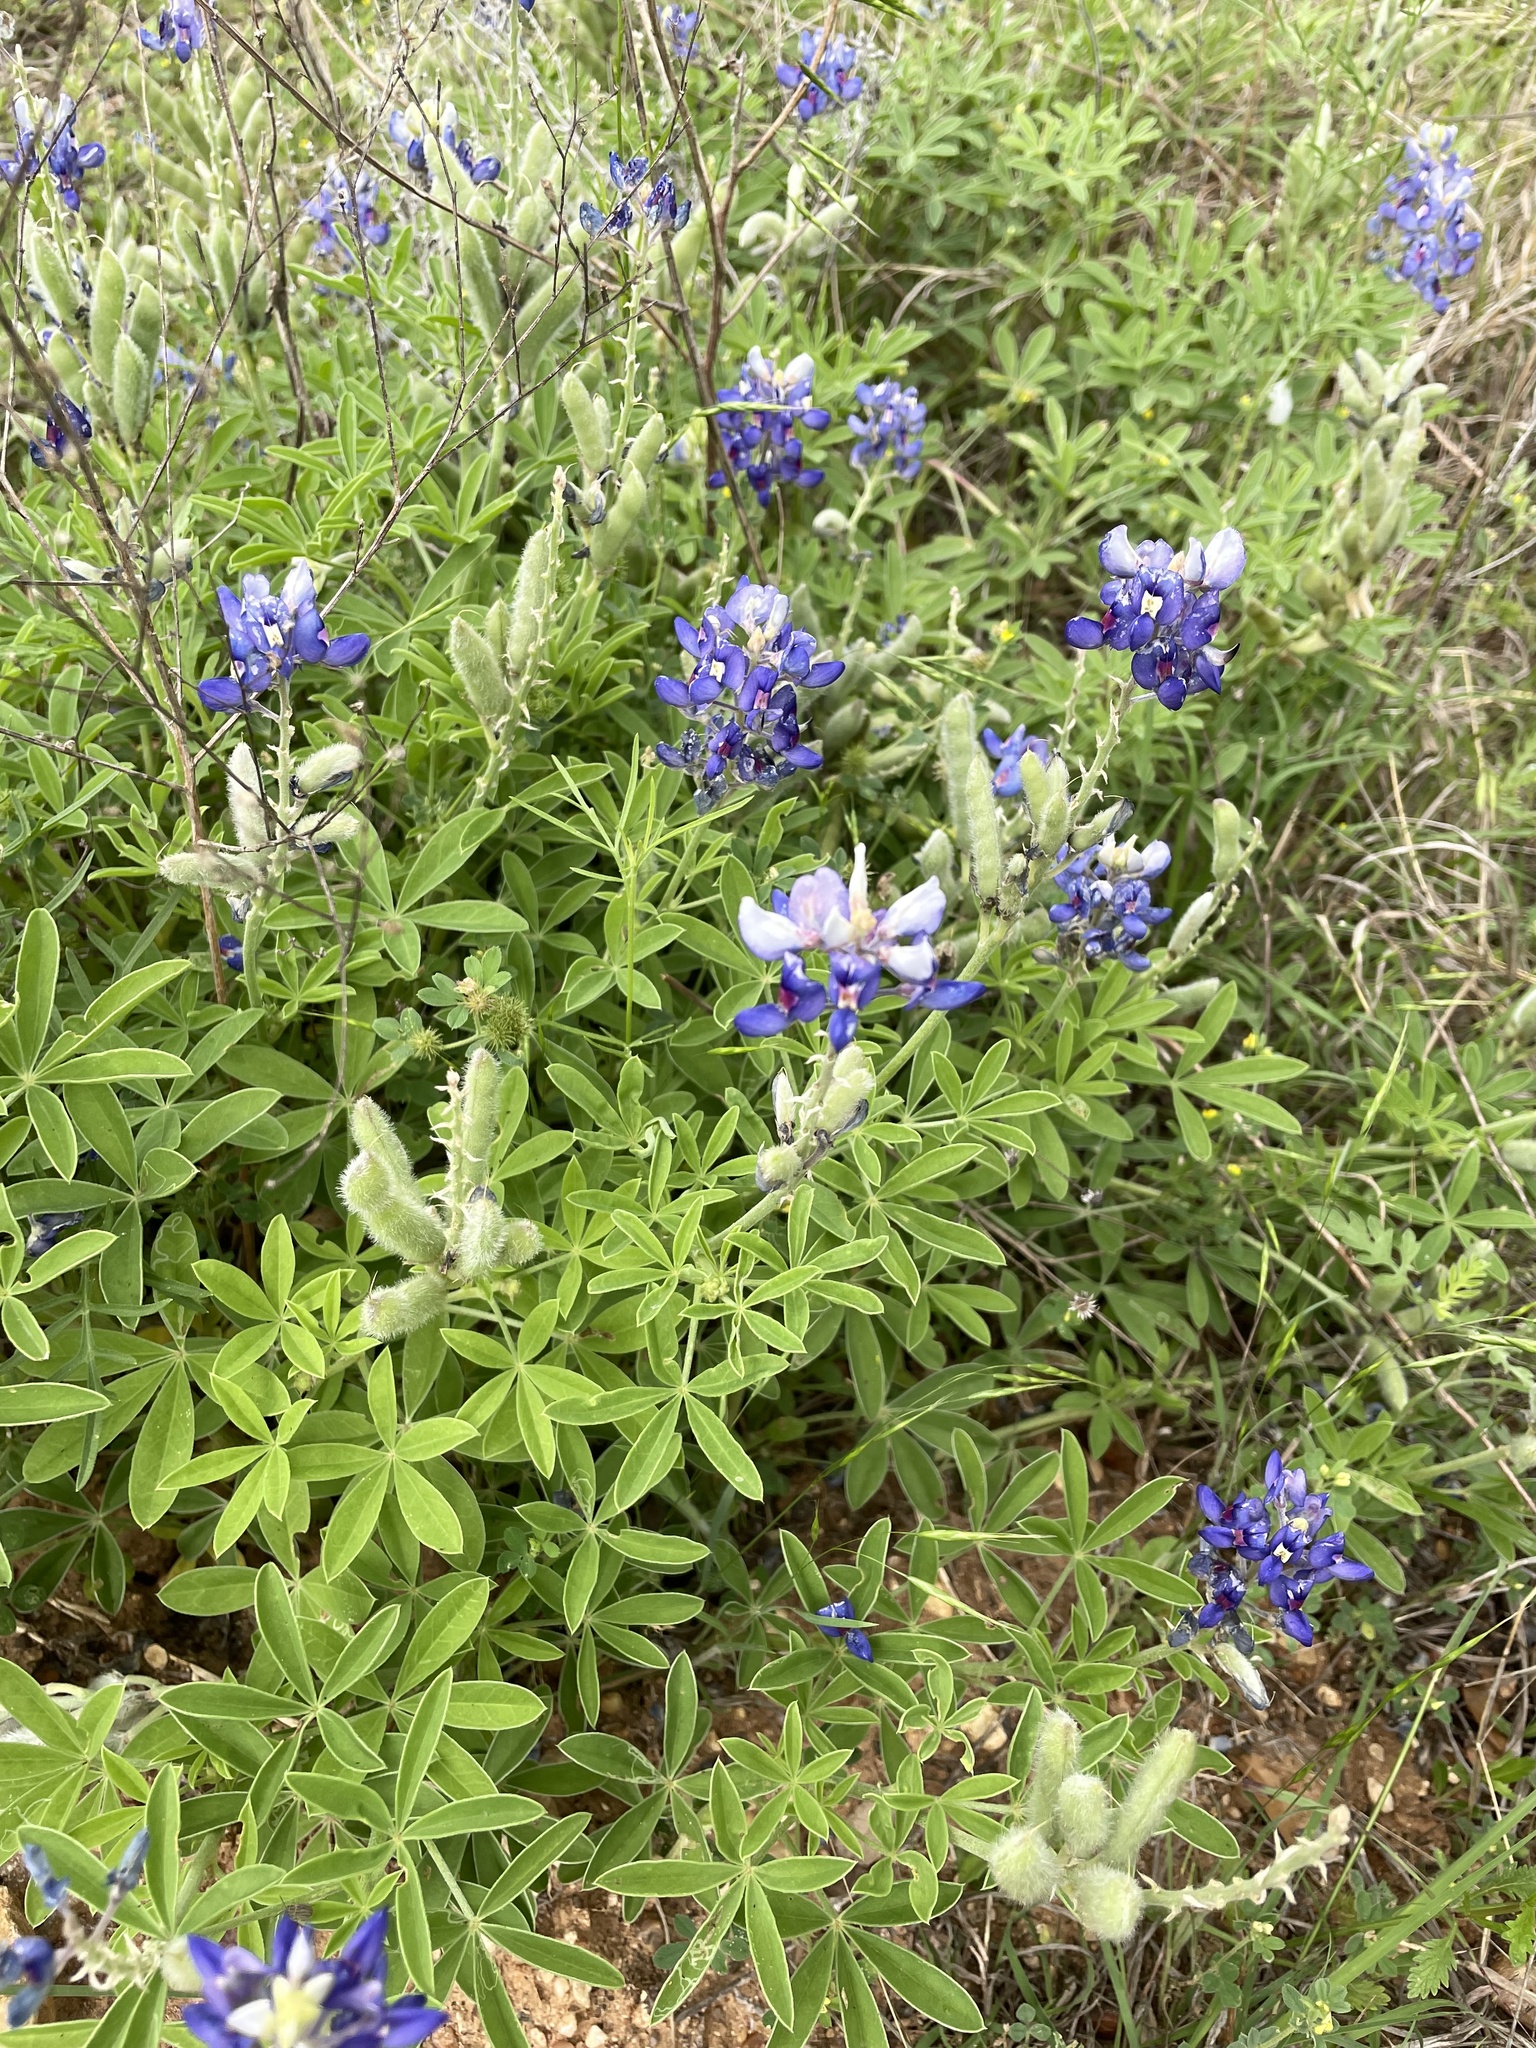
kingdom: Plantae
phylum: Tracheophyta
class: Magnoliopsida
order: Fabales
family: Fabaceae
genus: Lupinus
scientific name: Lupinus texensis
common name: Texas bluebonnet
